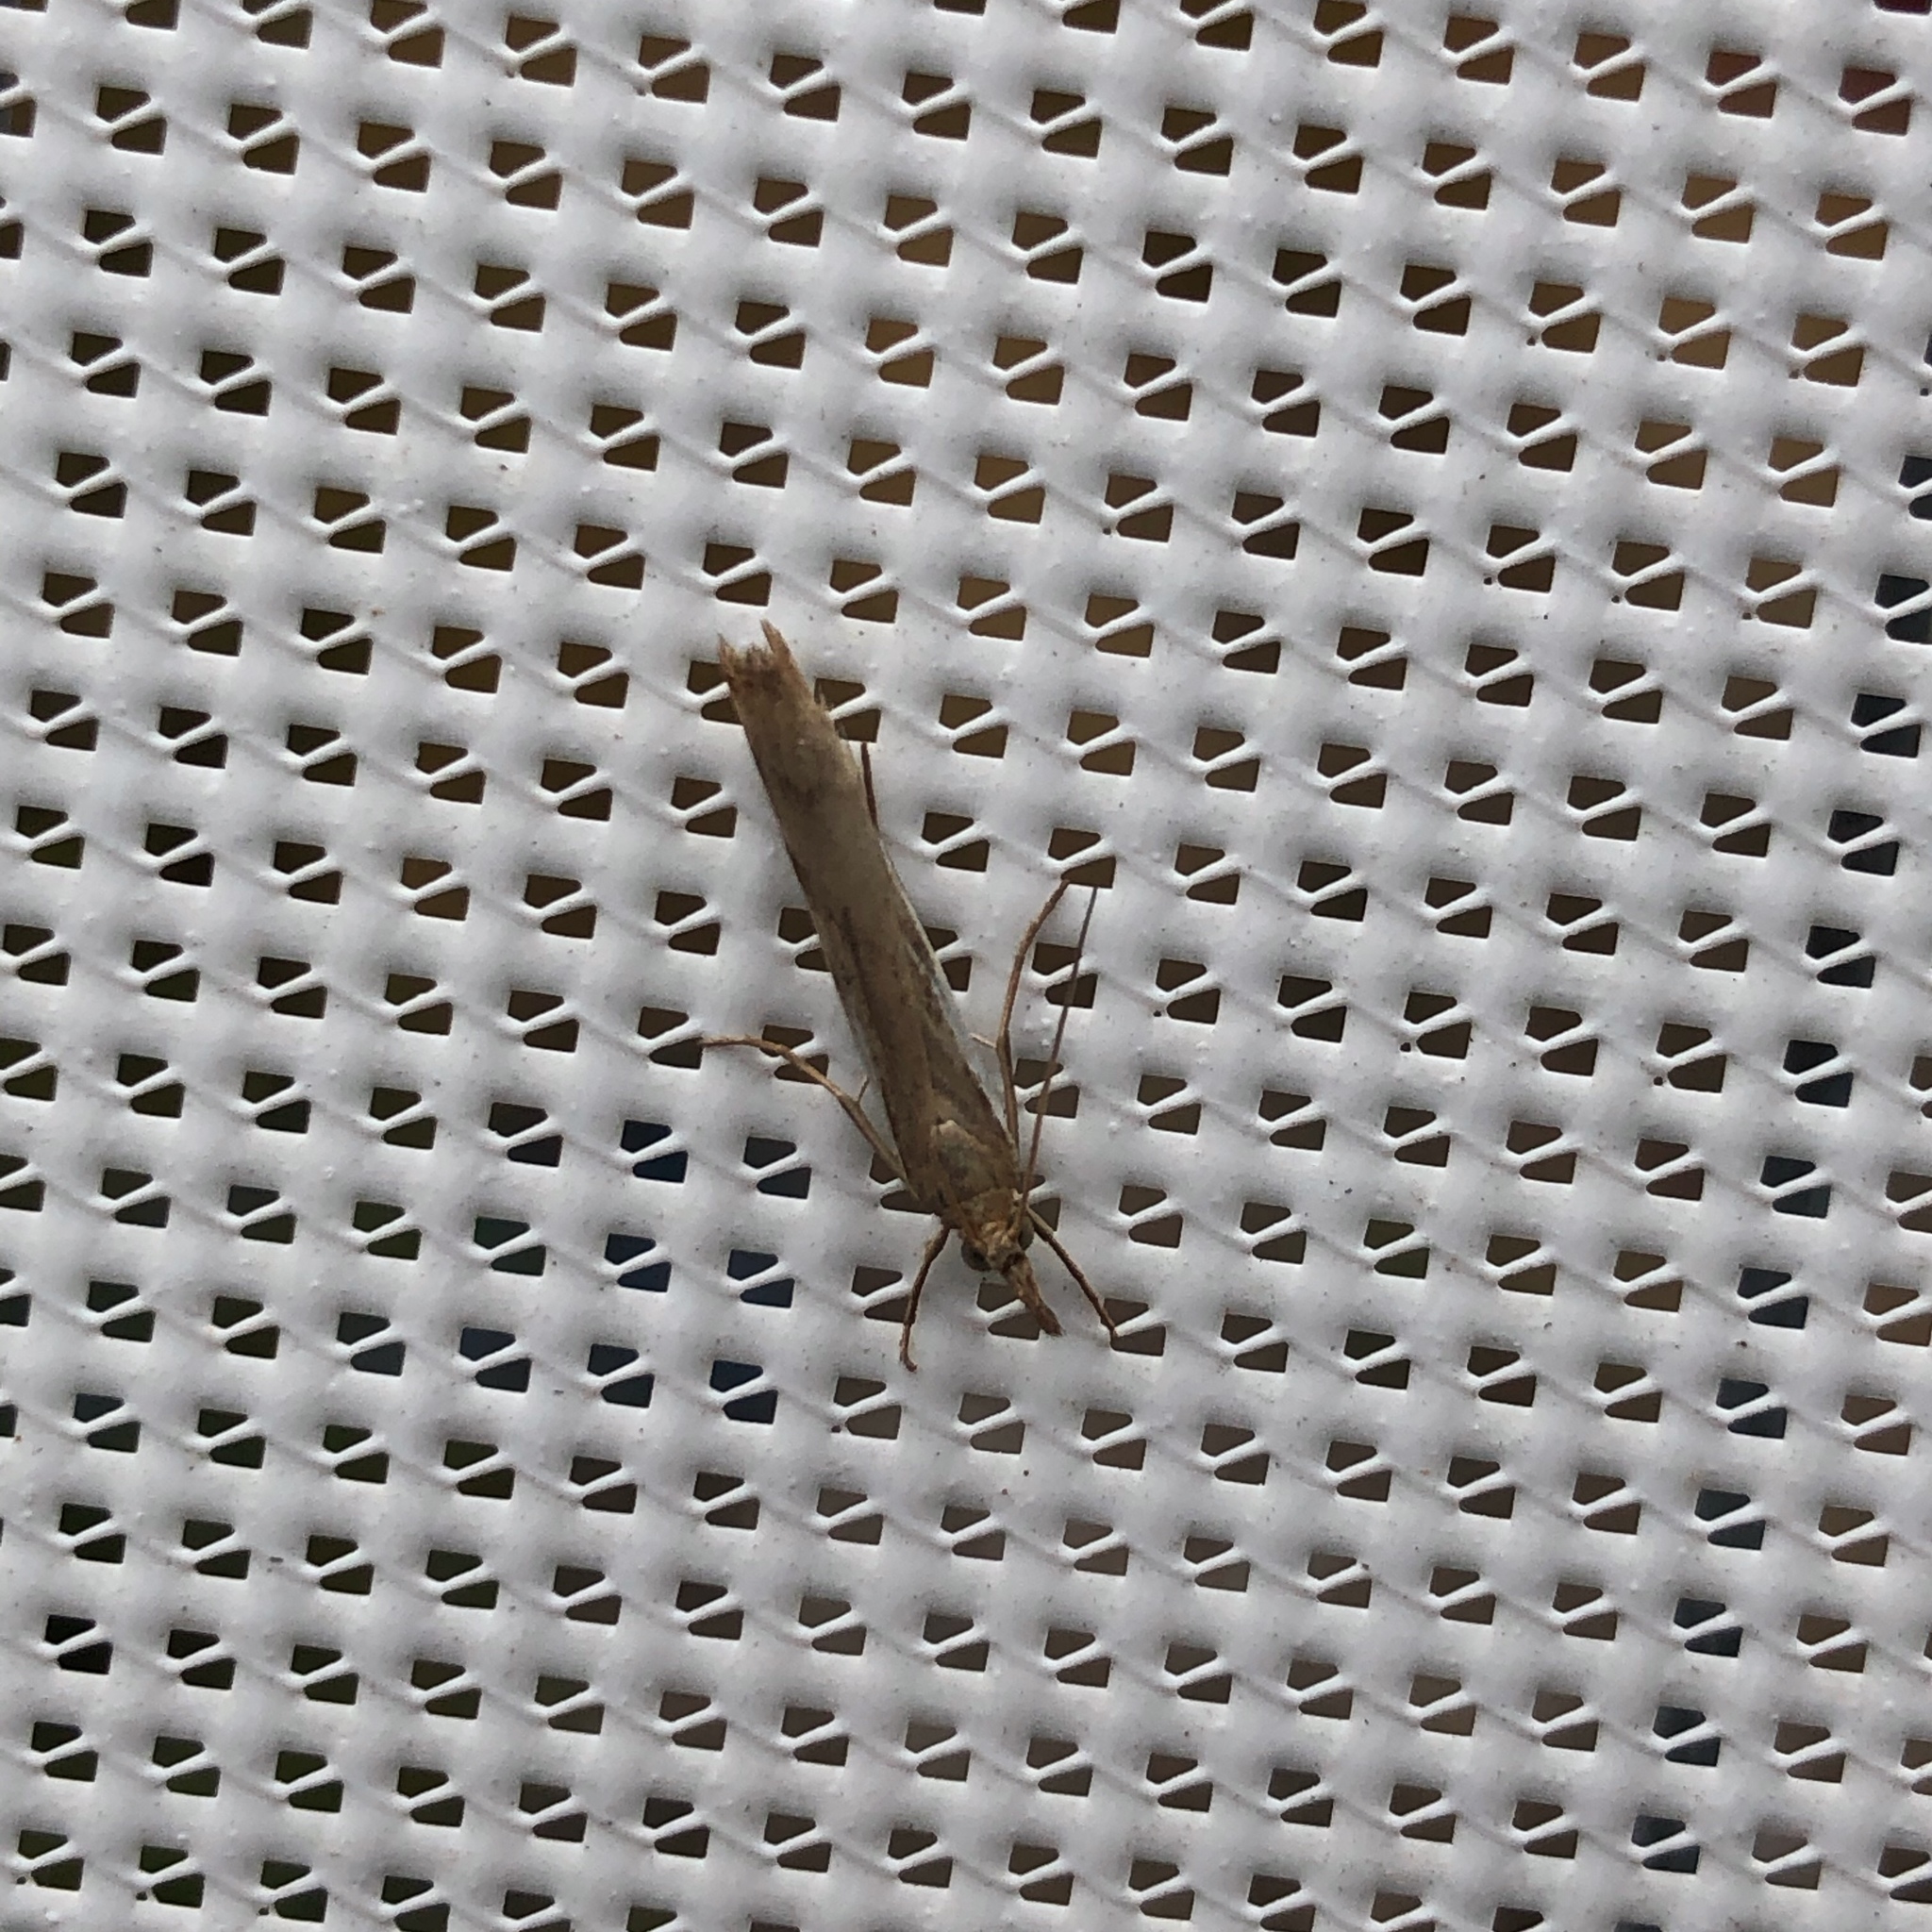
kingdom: Animalia
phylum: Arthropoda
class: Insecta
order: Lepidoptera
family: Crambidae
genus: Orocrambus
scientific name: Orocrambus flexuosellus
